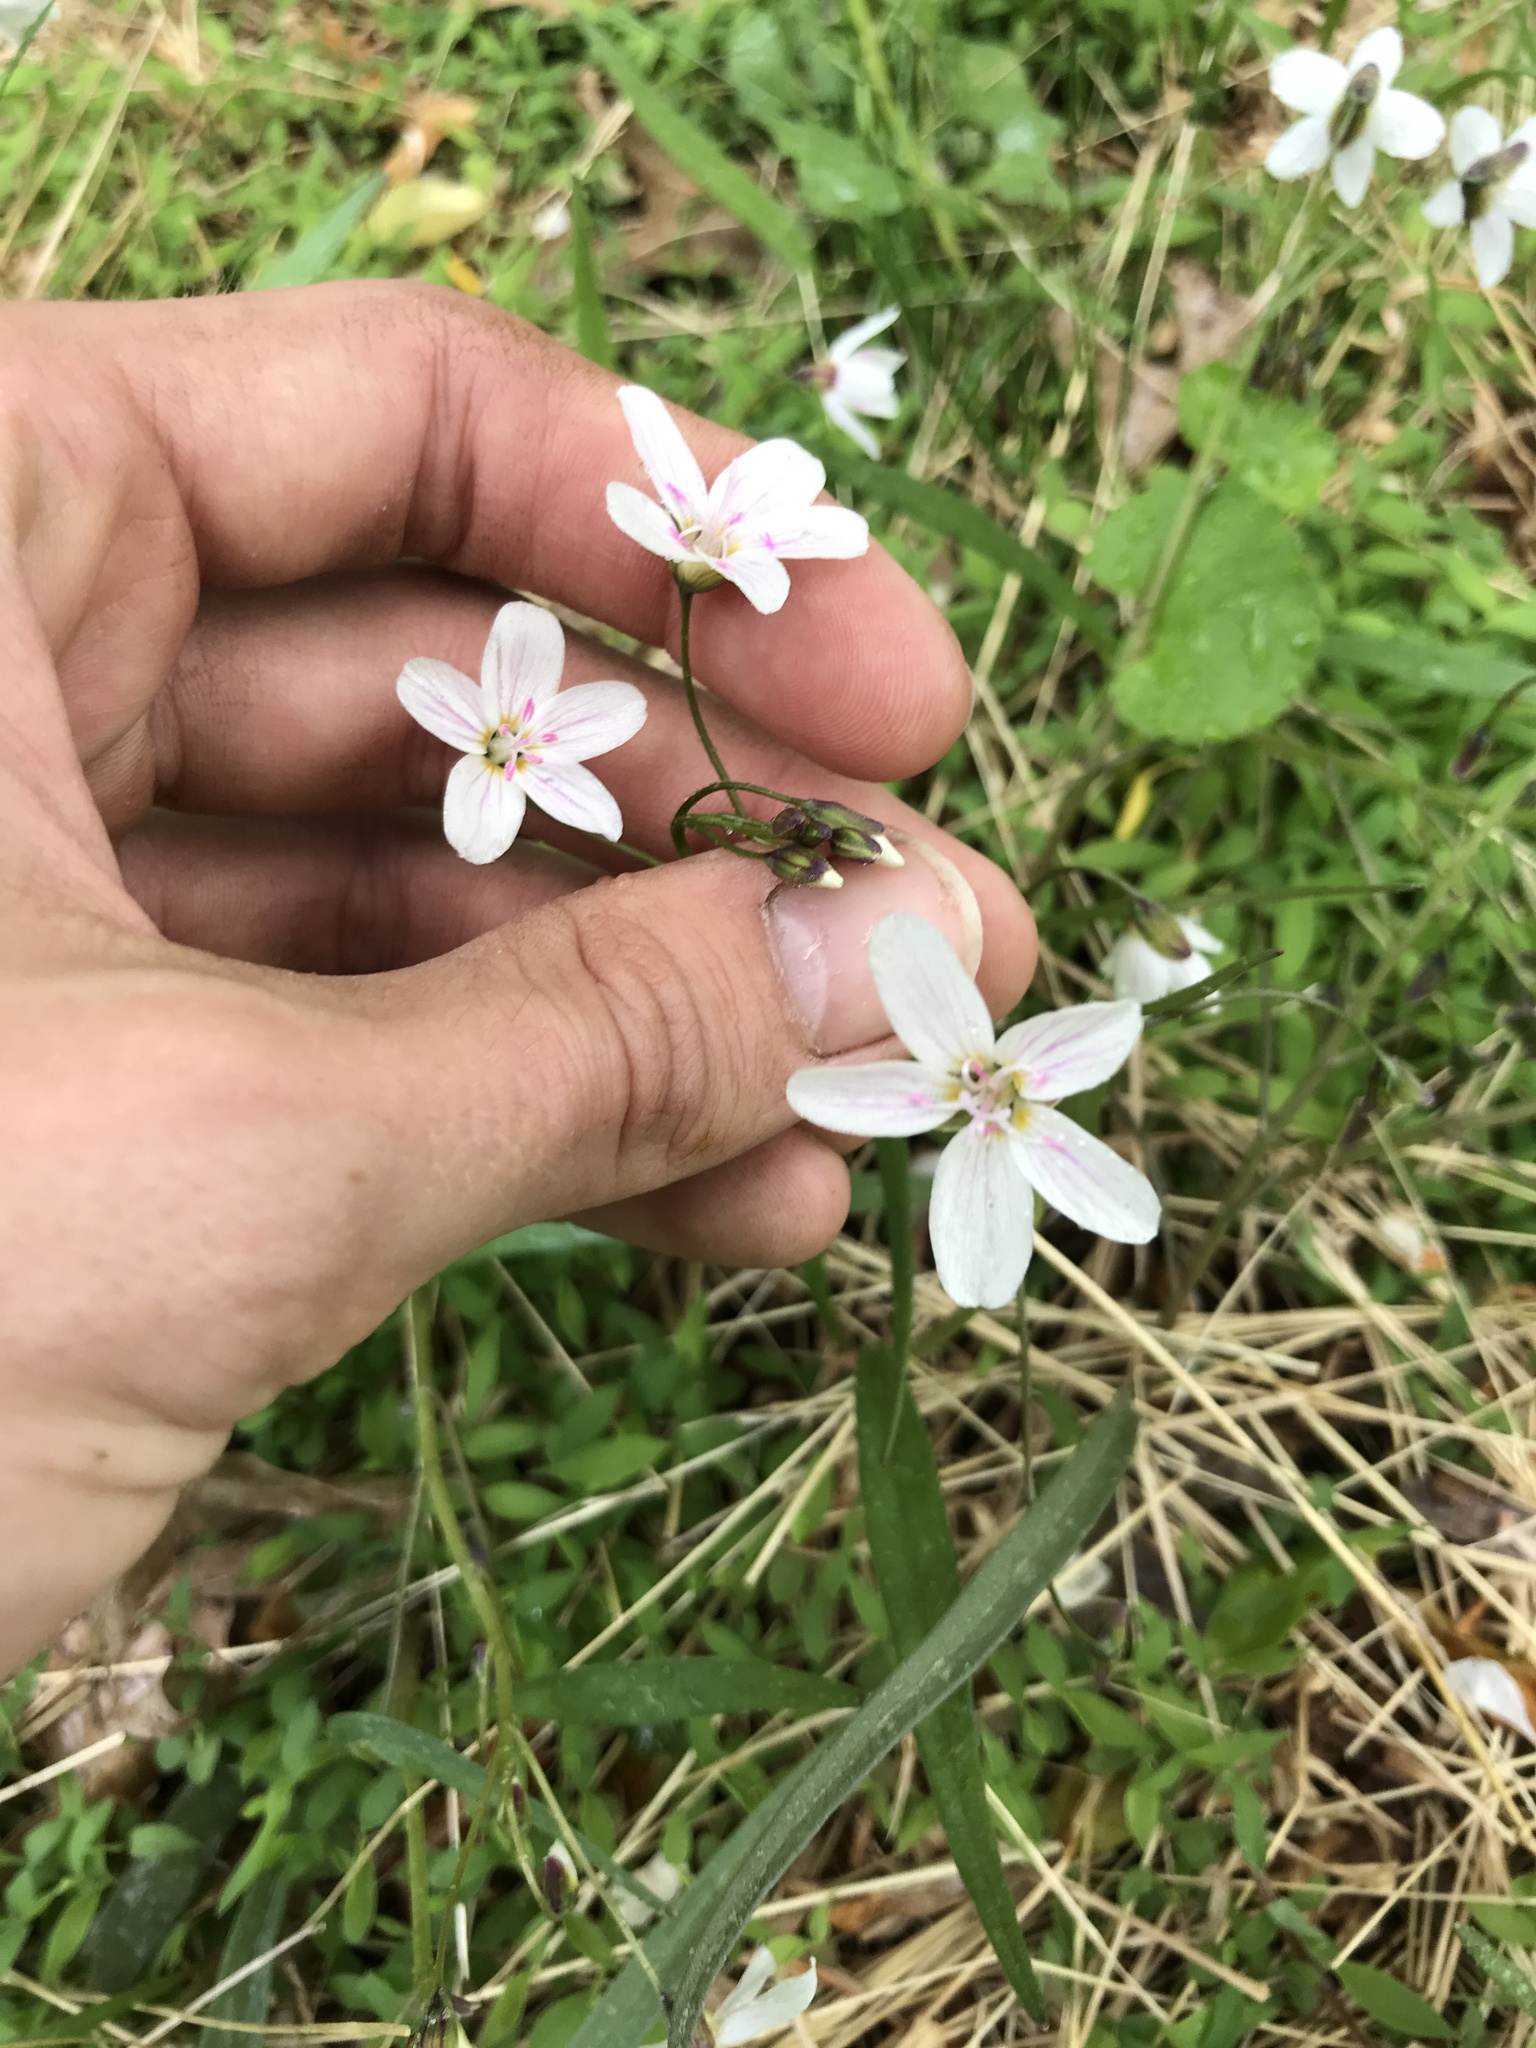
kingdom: Plantae
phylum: Tracheophyta
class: Magnoliopsida
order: Caryophyllales
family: Montiaceae
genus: Claytonia
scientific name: Claytonia virginica
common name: Virginia springbeauty
